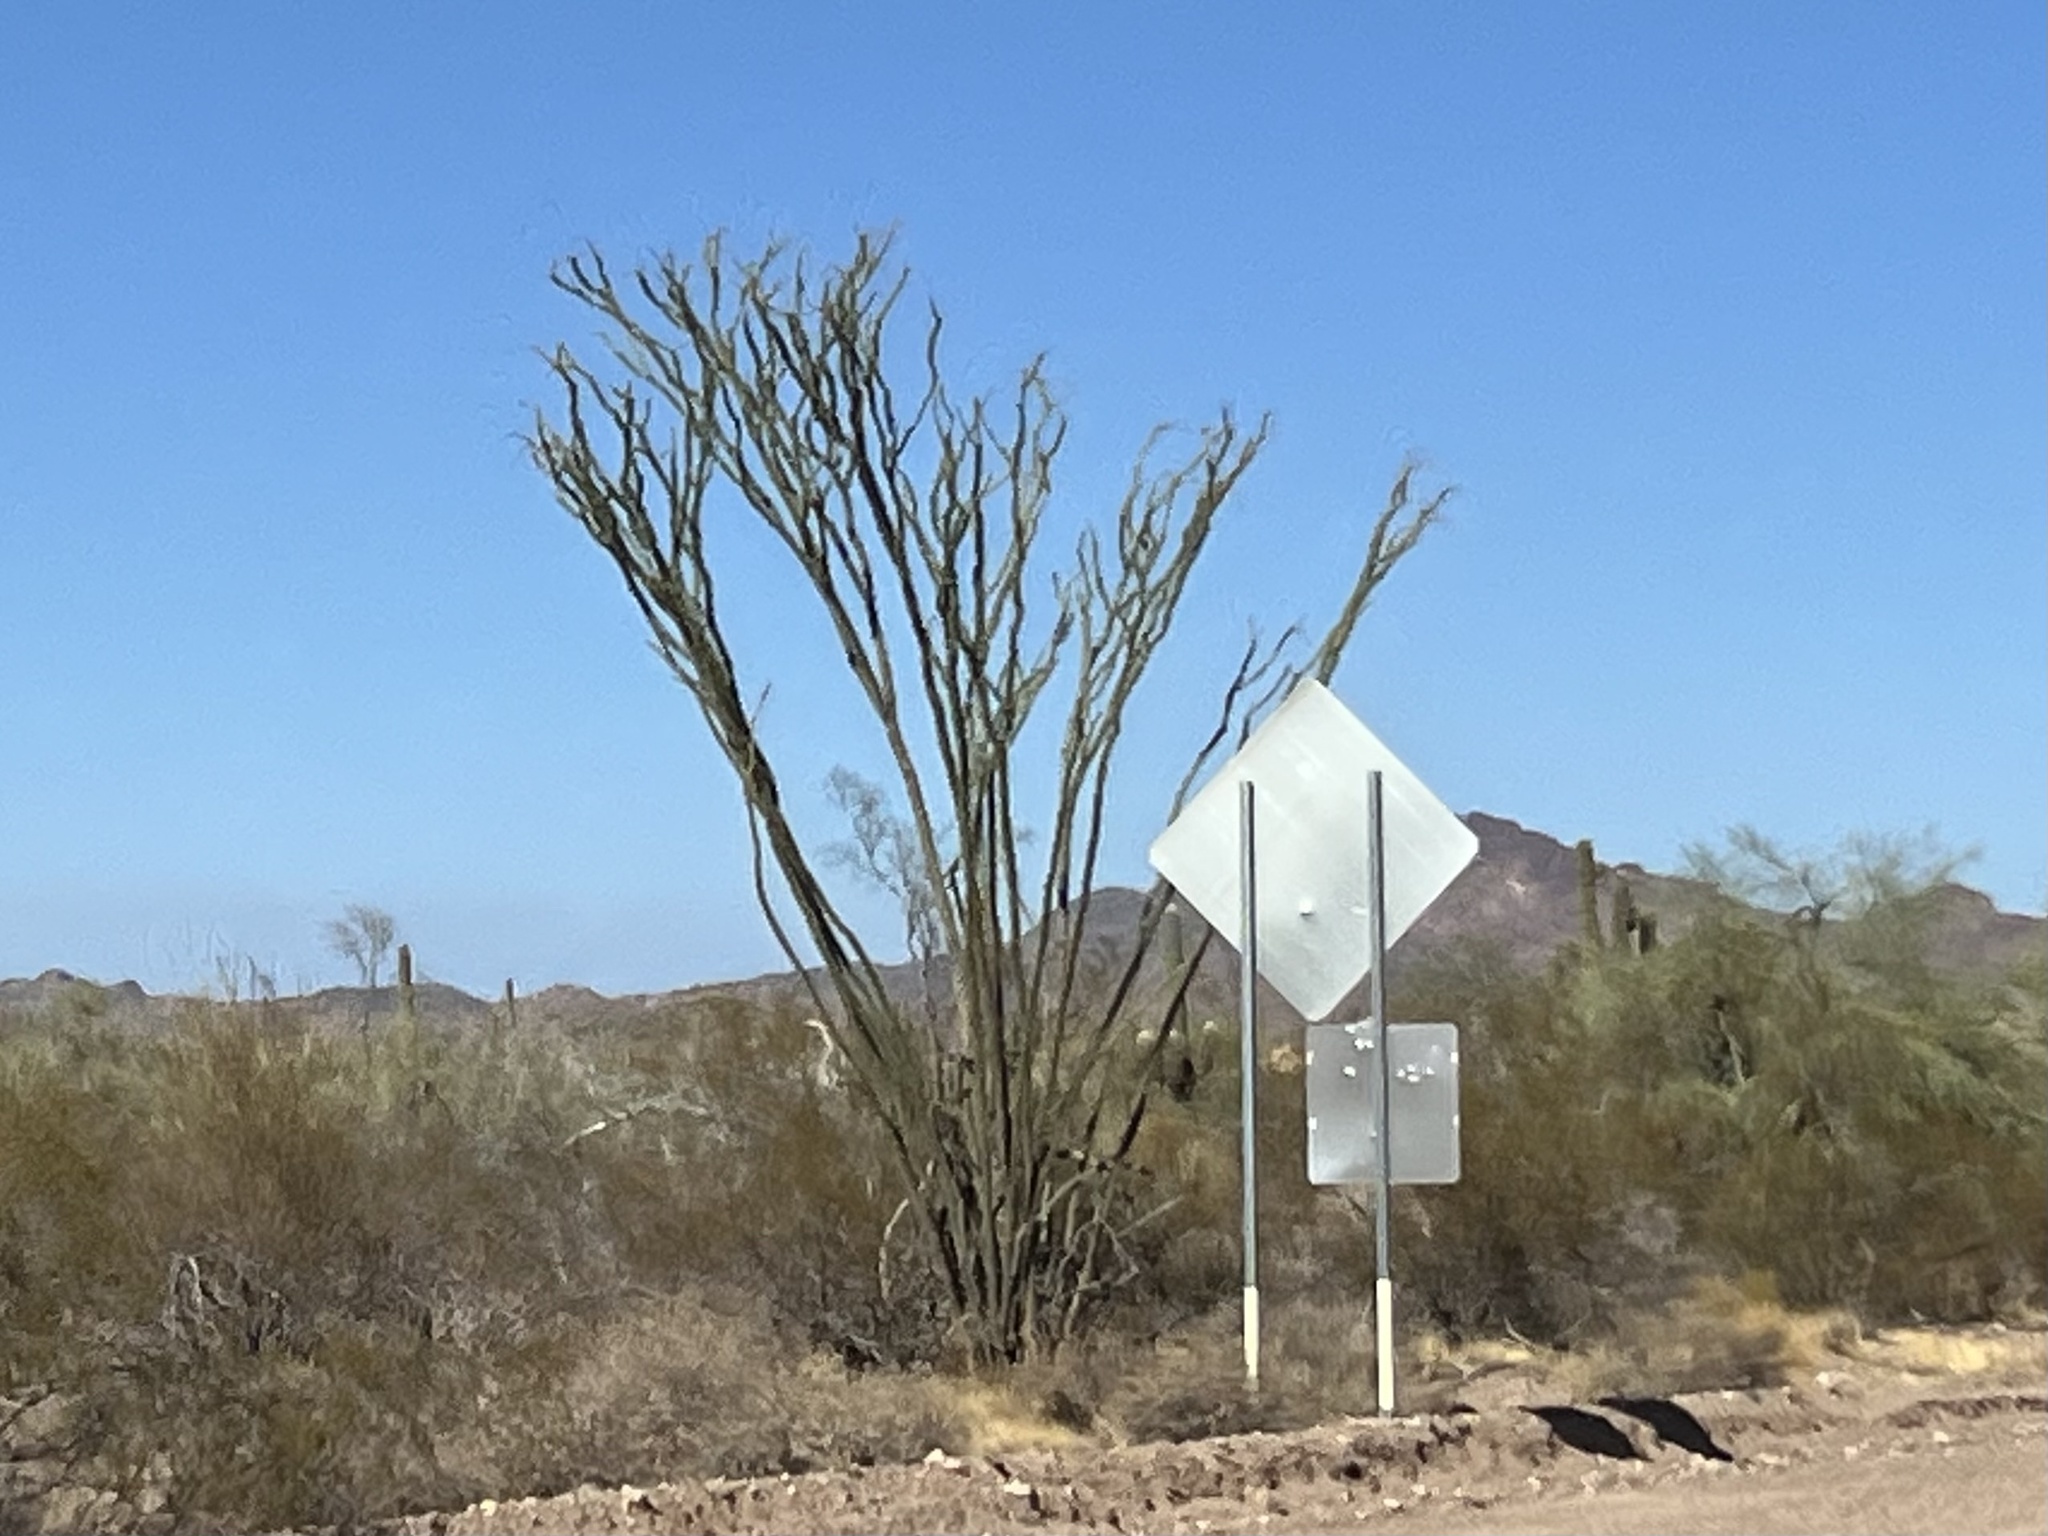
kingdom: Plantae
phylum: Tracheophyta
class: Magnoliopsida
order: Ericales
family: Fouquieriaceae
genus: Fouquieria
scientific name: Fouquieria splendens
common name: Vine-cactus
